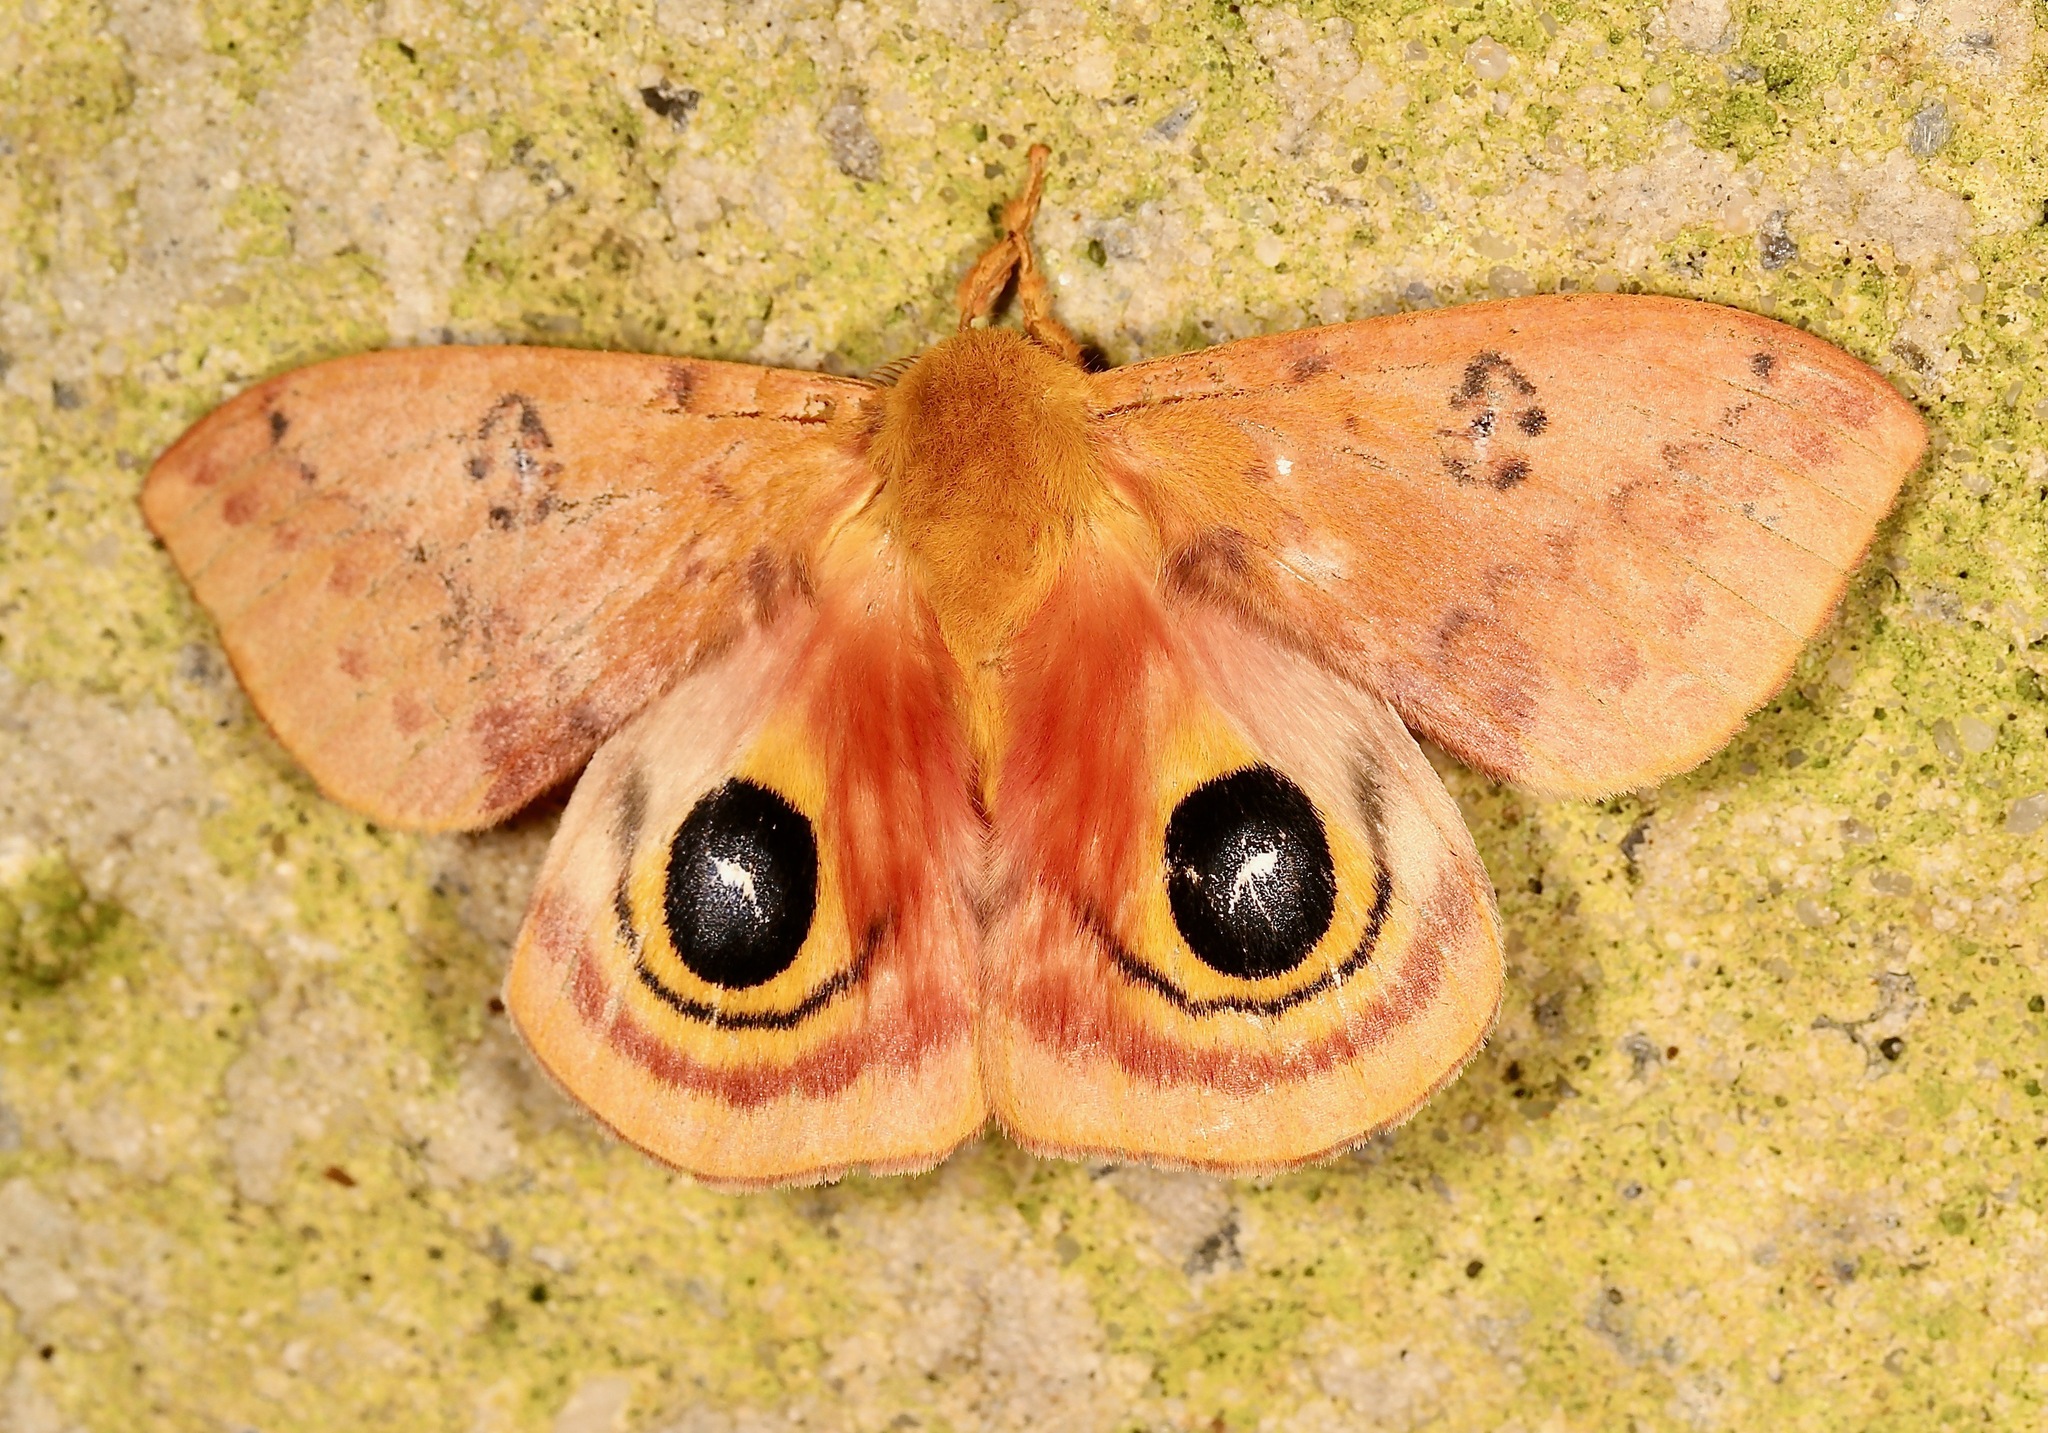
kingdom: Animalia
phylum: Arthropoda
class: Insecta
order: Lepidoptera
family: Saturniidae
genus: Automeris
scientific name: Automeris io
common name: Io moth
